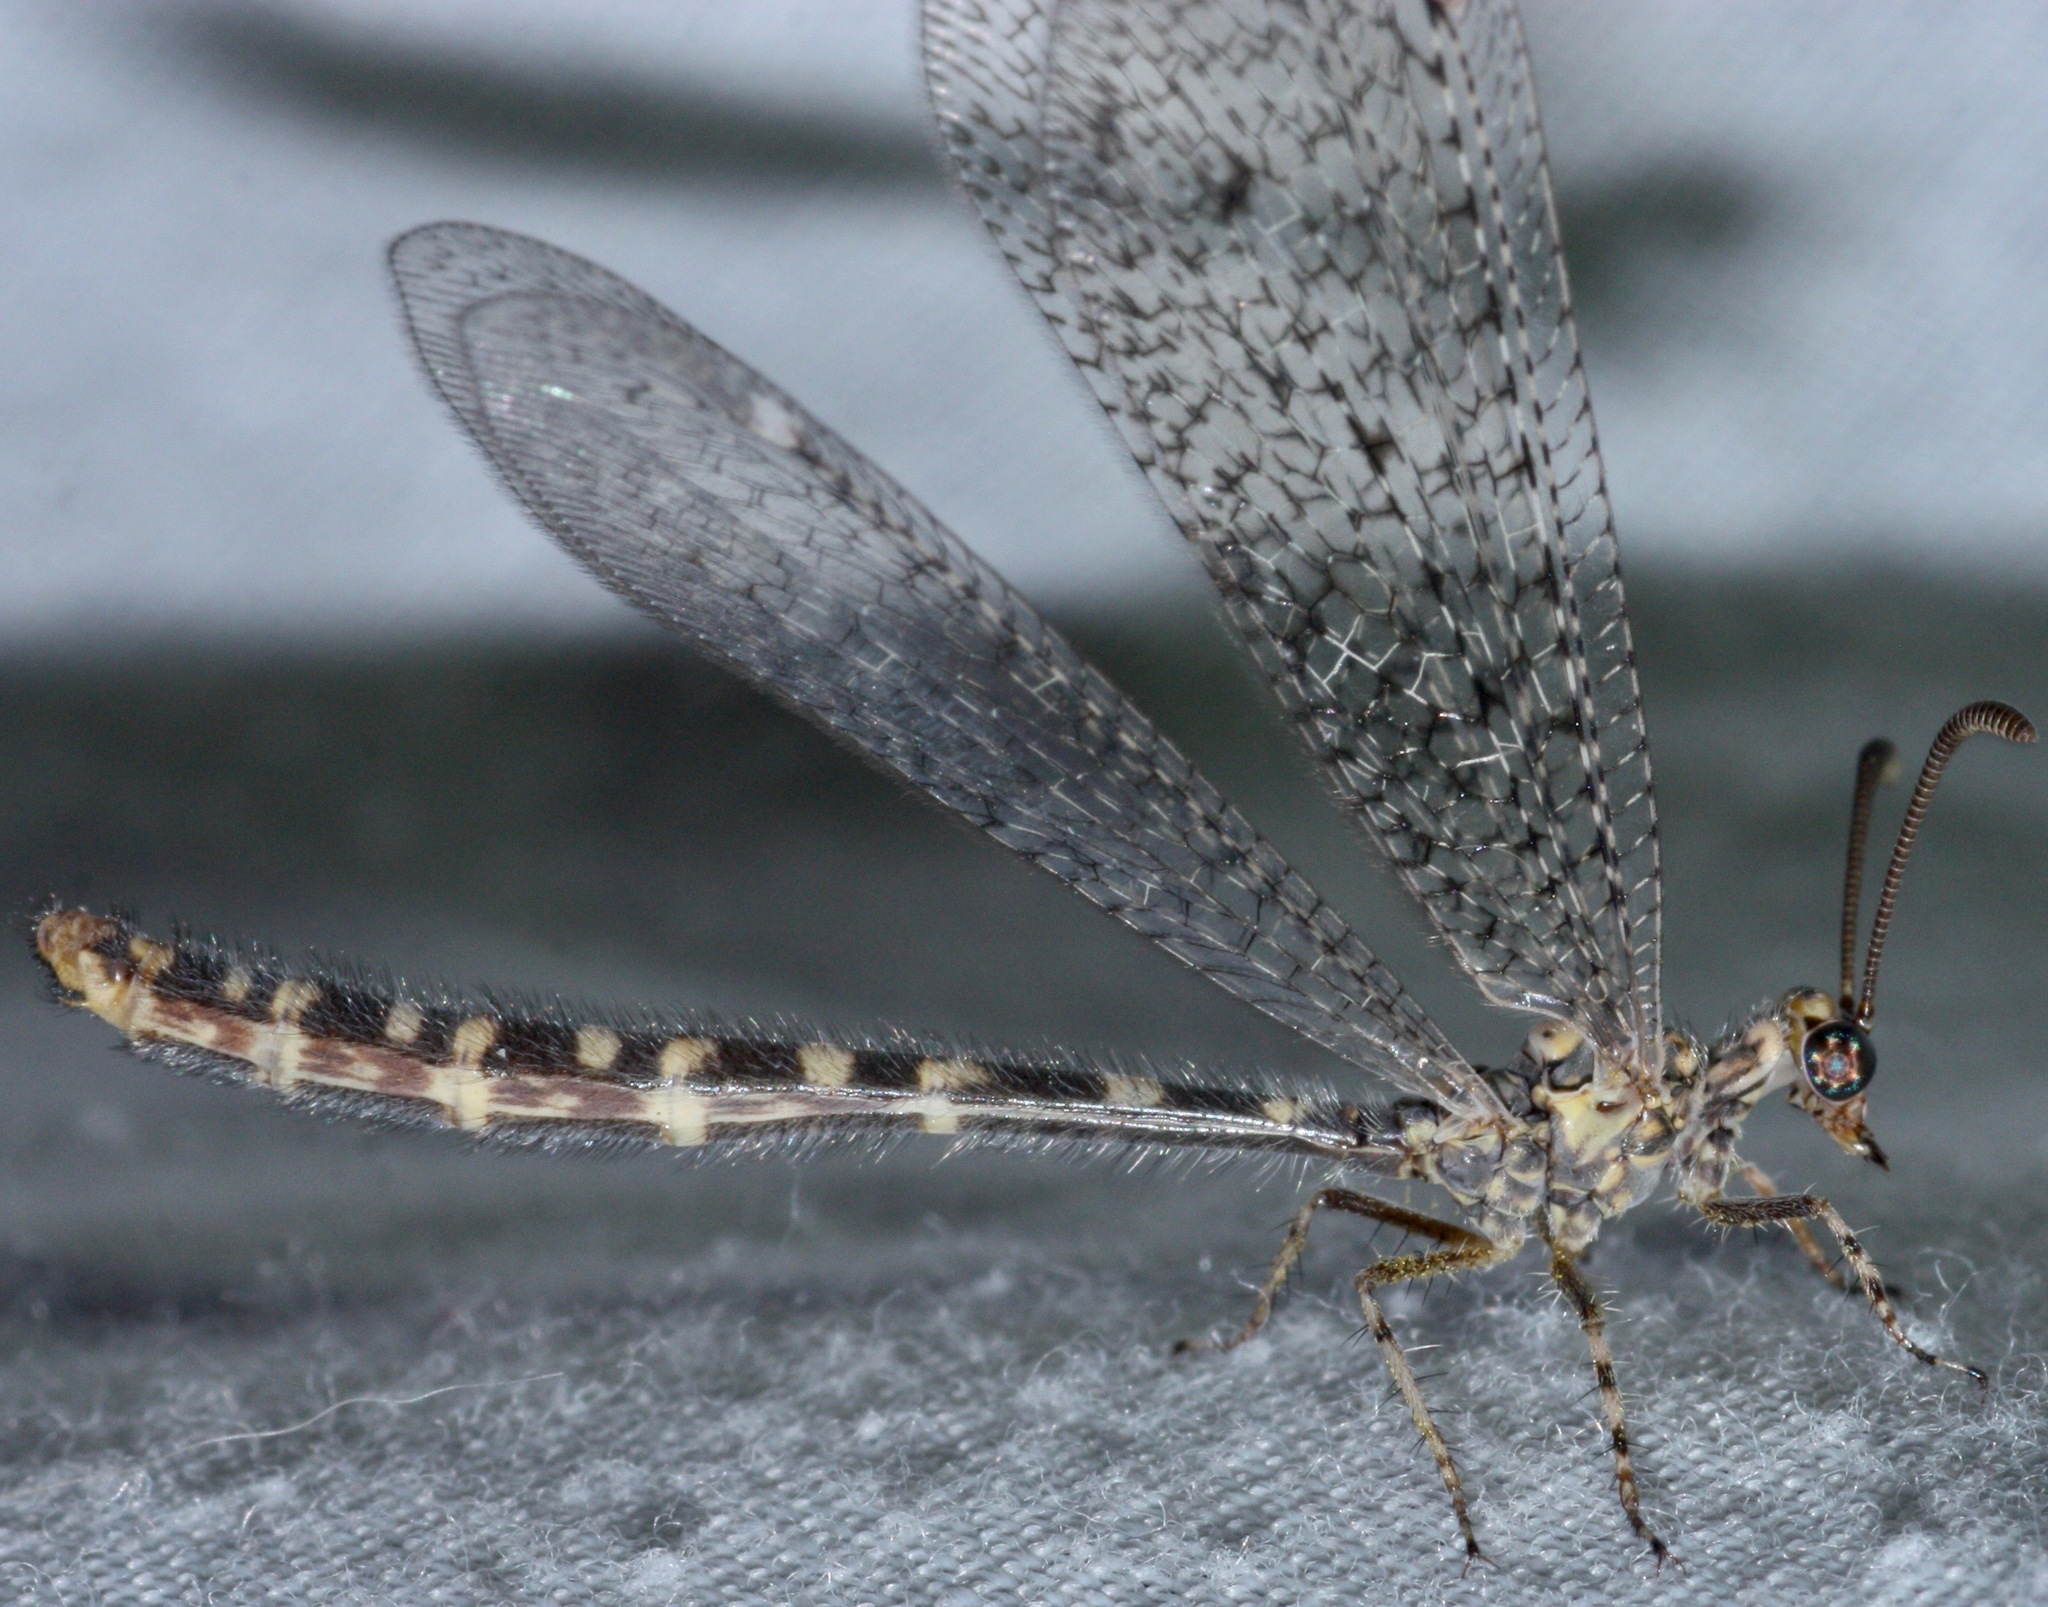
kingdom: Animalia
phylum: Arthropoda
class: Insecta
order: Neuroptera
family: Myrmeleontidae
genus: Brachynemurus
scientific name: Brachynemurus sackeni
